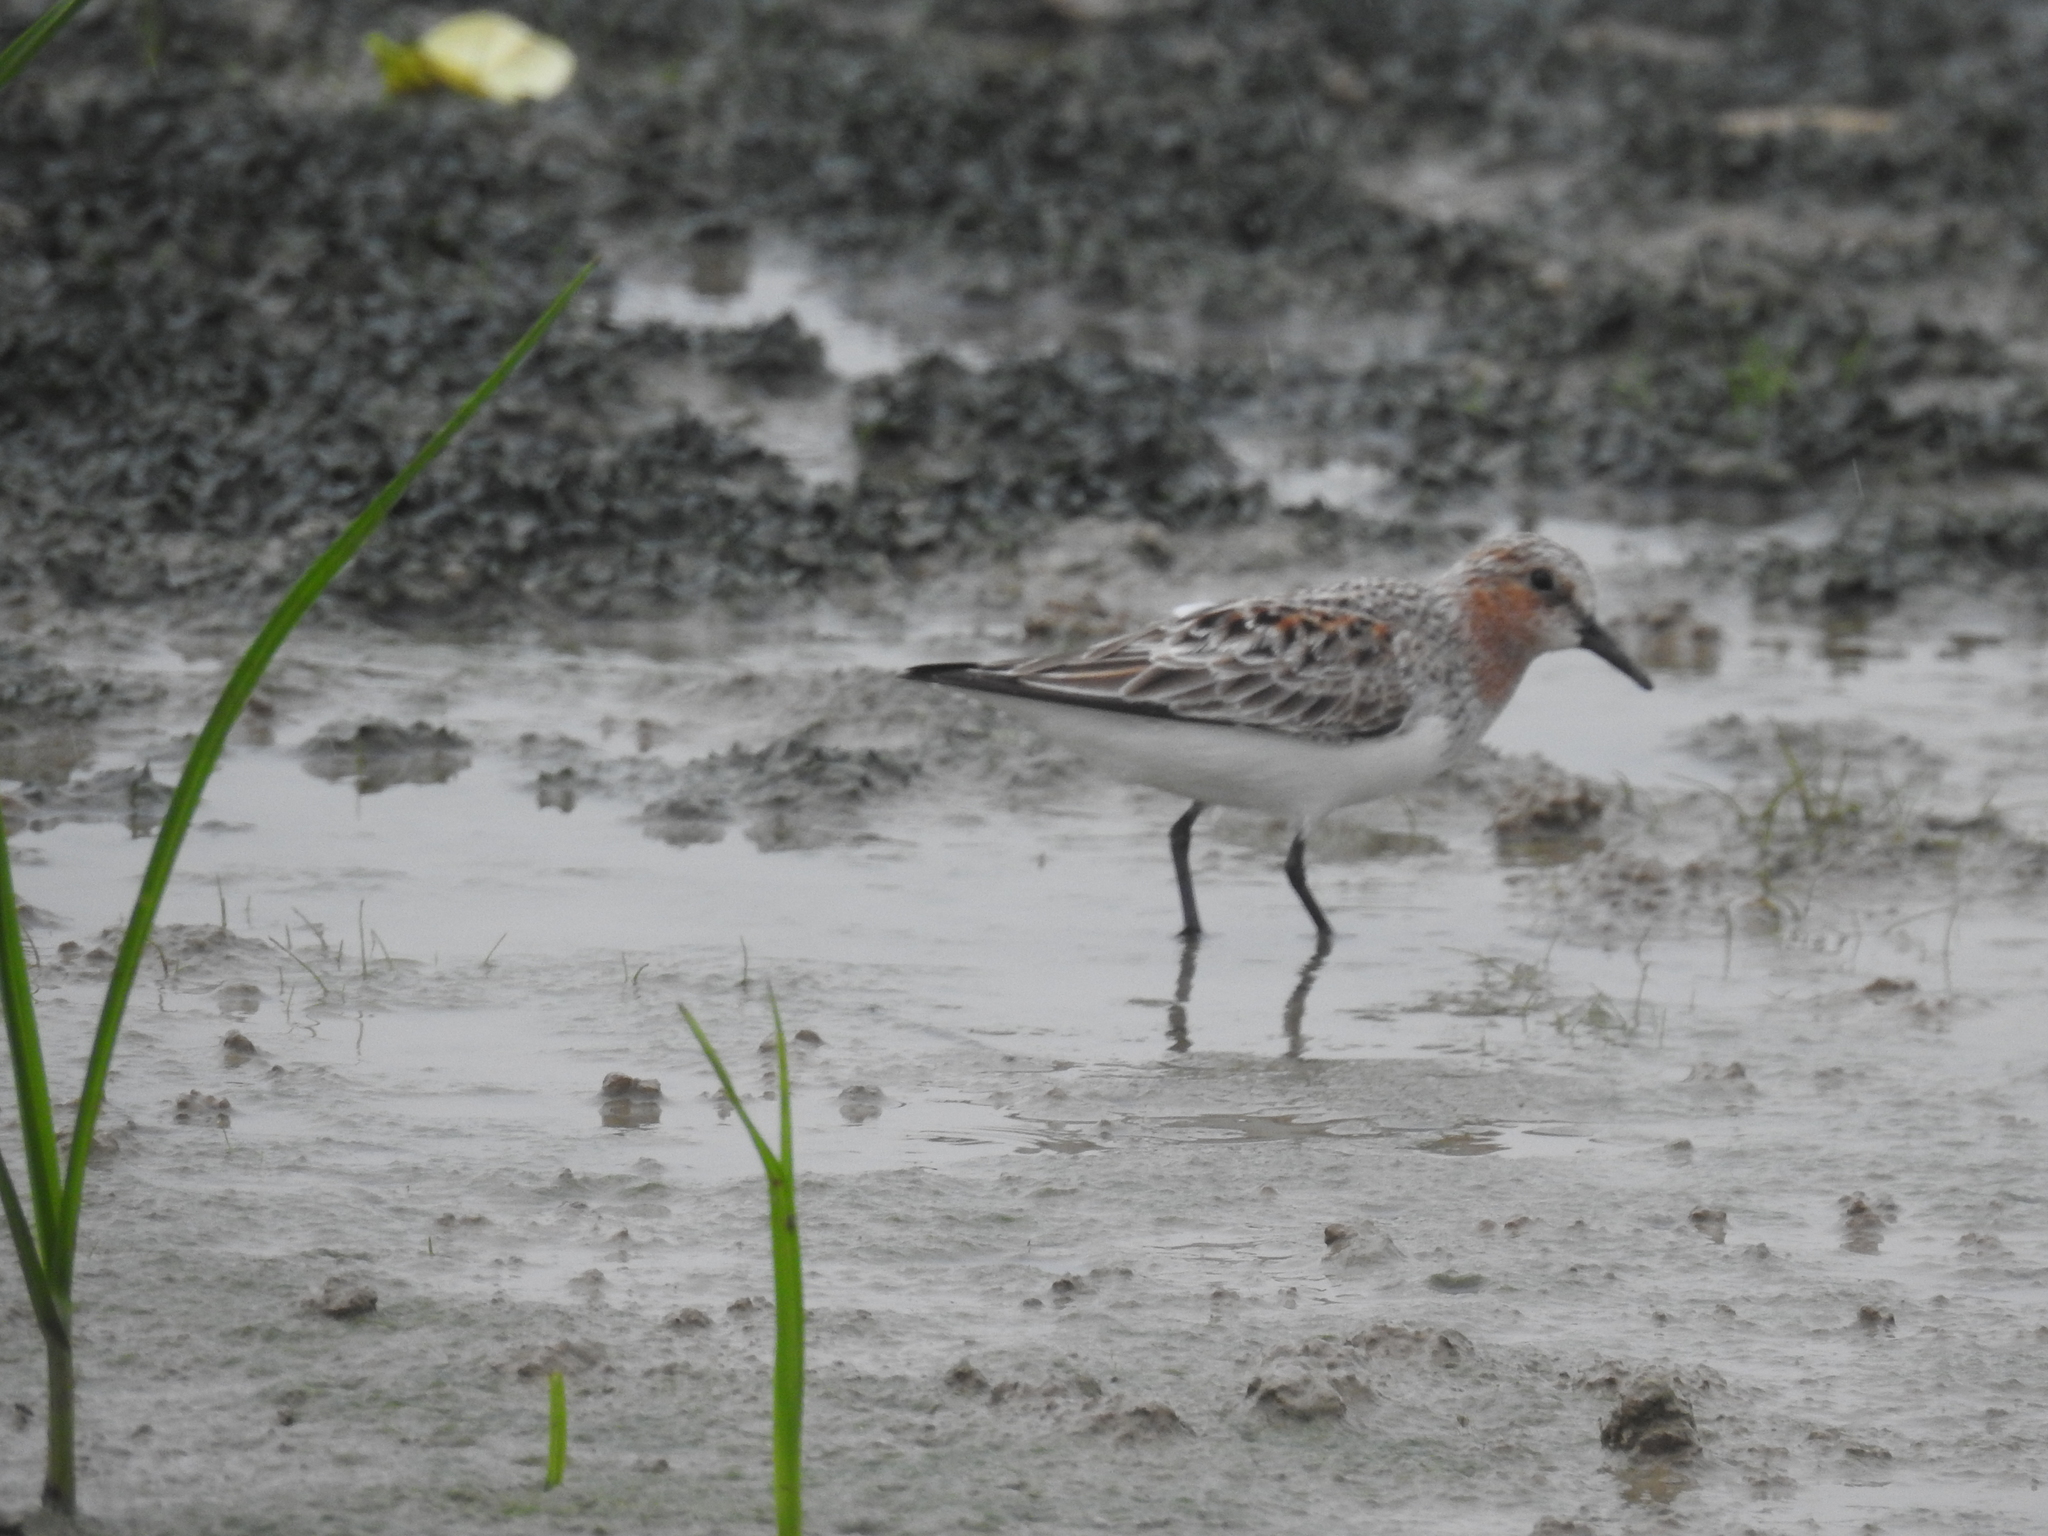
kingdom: Animalia
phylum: Chordata
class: Aves
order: Charadriiformes
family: Scolopacidae
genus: Calidris
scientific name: Calidris ruficollis
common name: Red-necked stint
